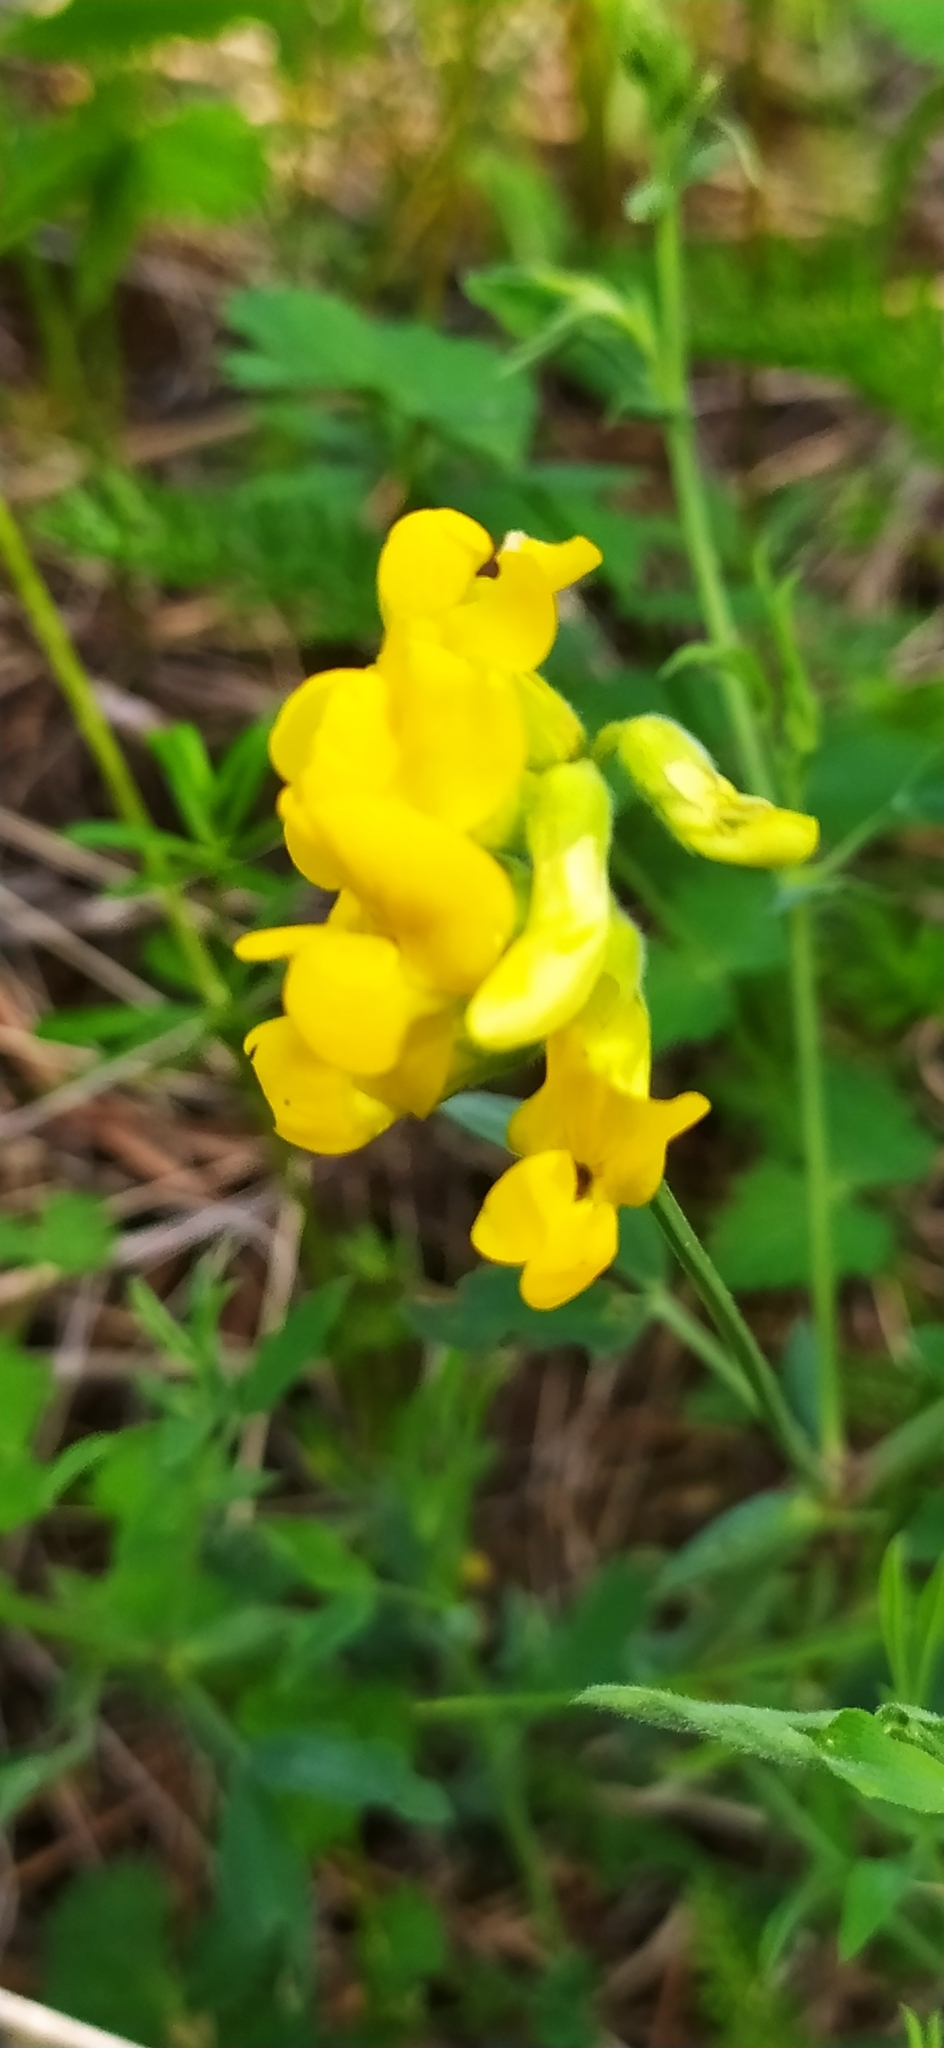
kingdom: Plantae
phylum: Tracheophyta
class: Magnoliopsida
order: Fabales
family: Fabaceae
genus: Lathyrus
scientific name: Lathyrus pratensis
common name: Meadow vetchling
